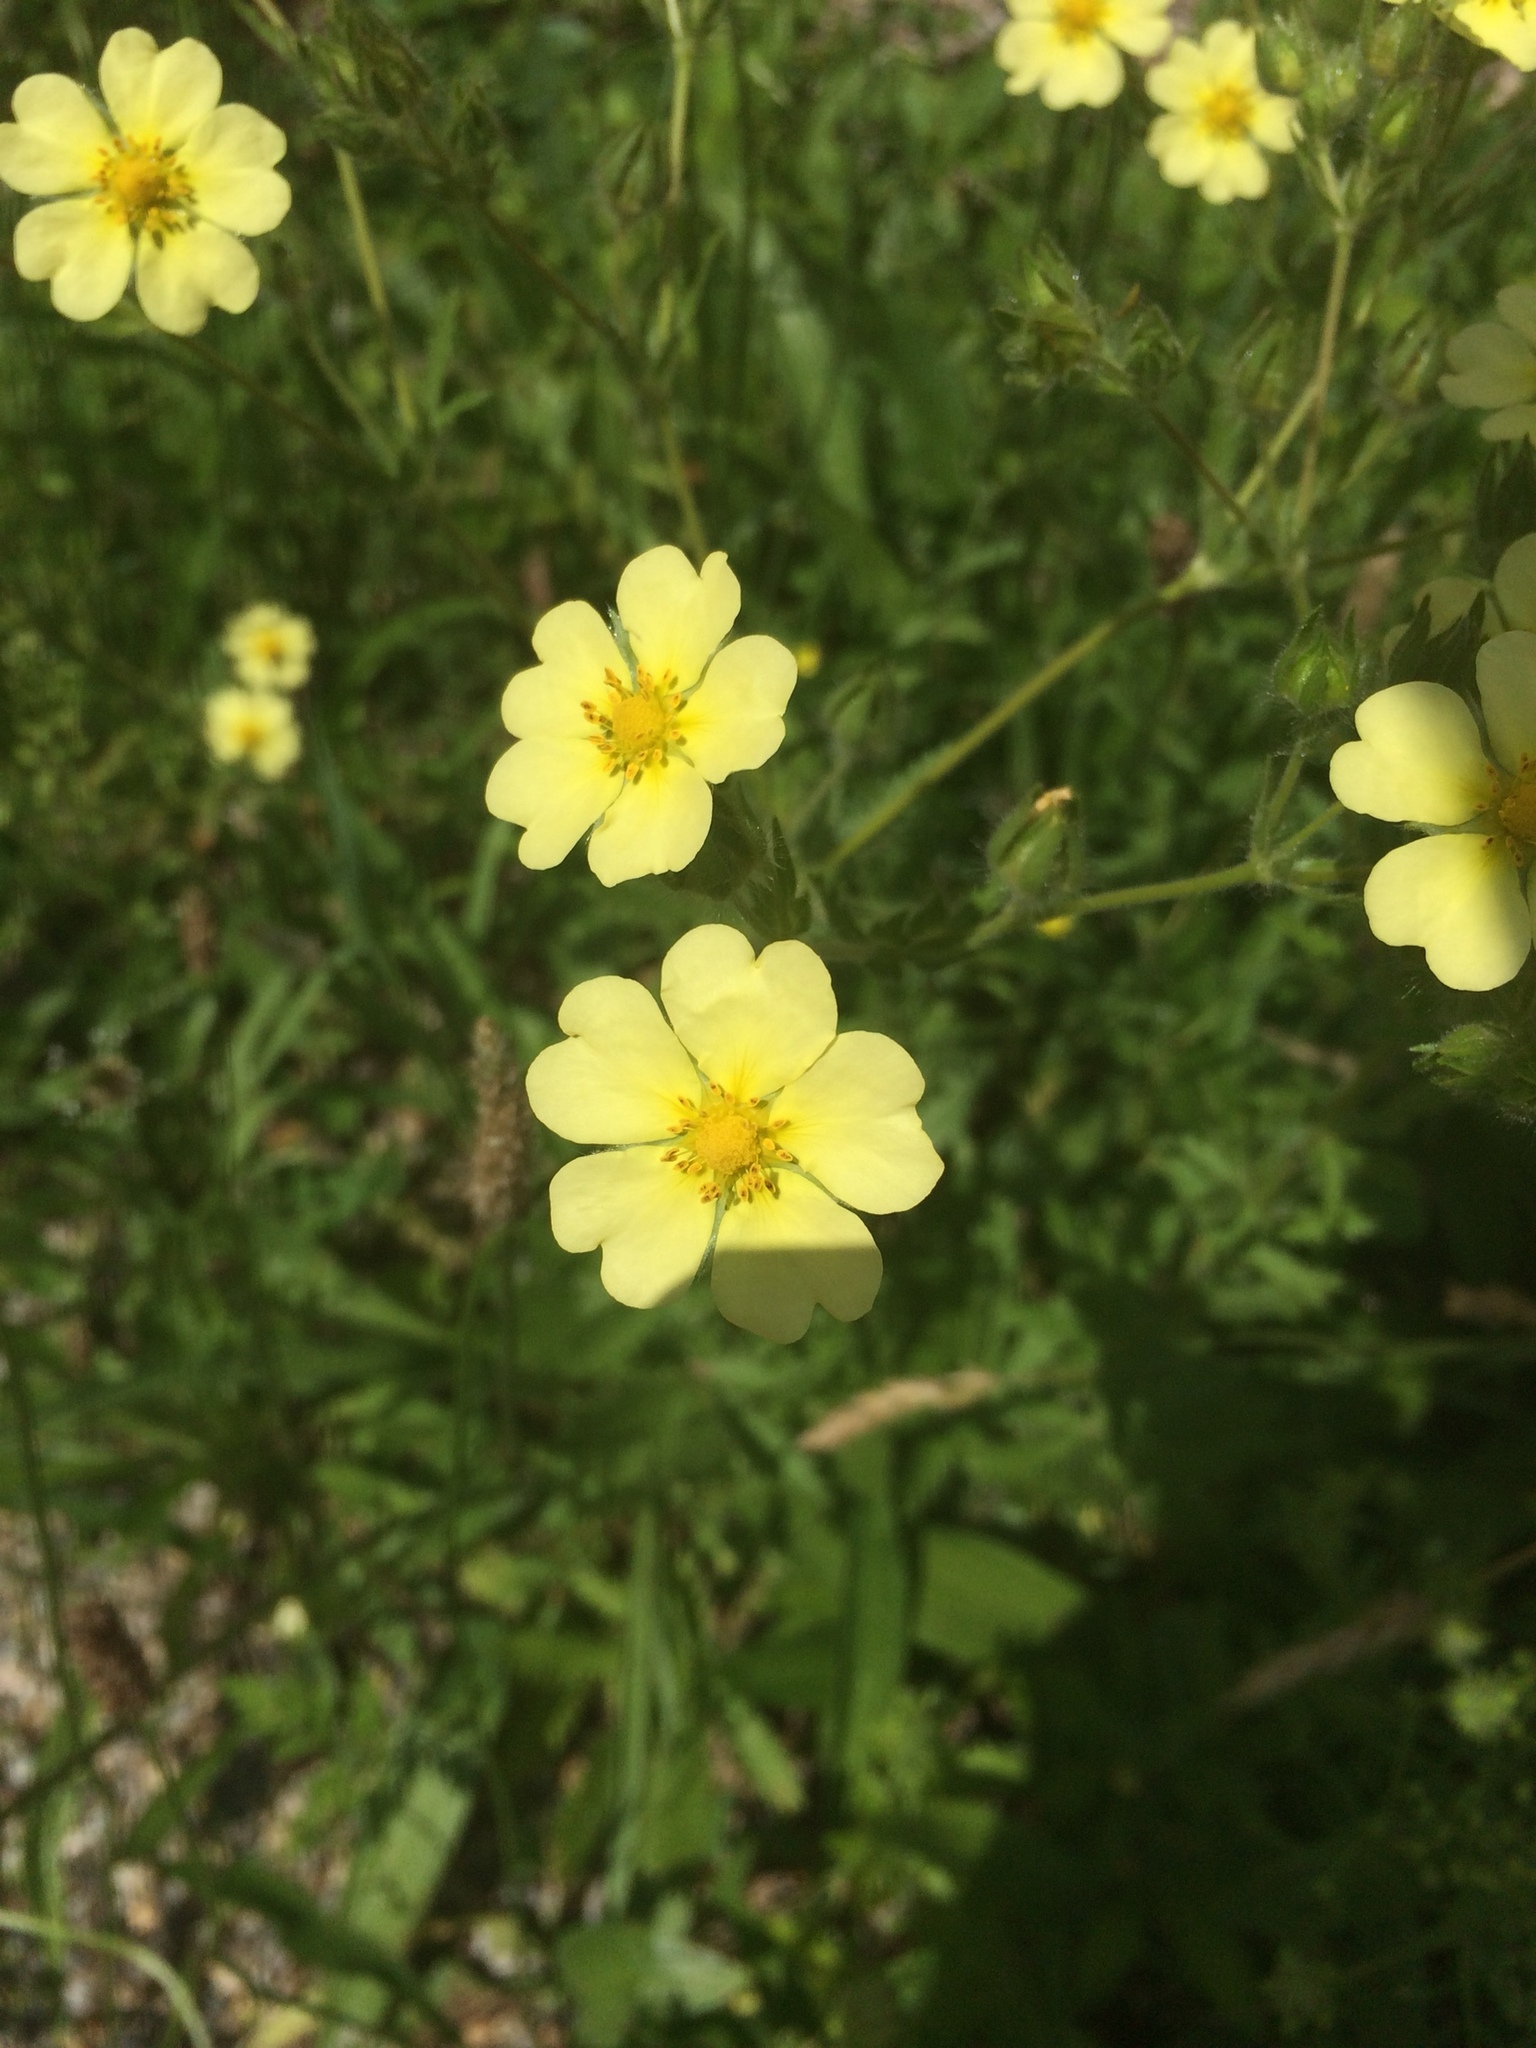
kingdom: Plantae
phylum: Tracheophyta
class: Magnoliopsida
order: Rosales
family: Rosaceae
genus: Potentilla
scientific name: Potentilla recta
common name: Sulphur cinquefoil
